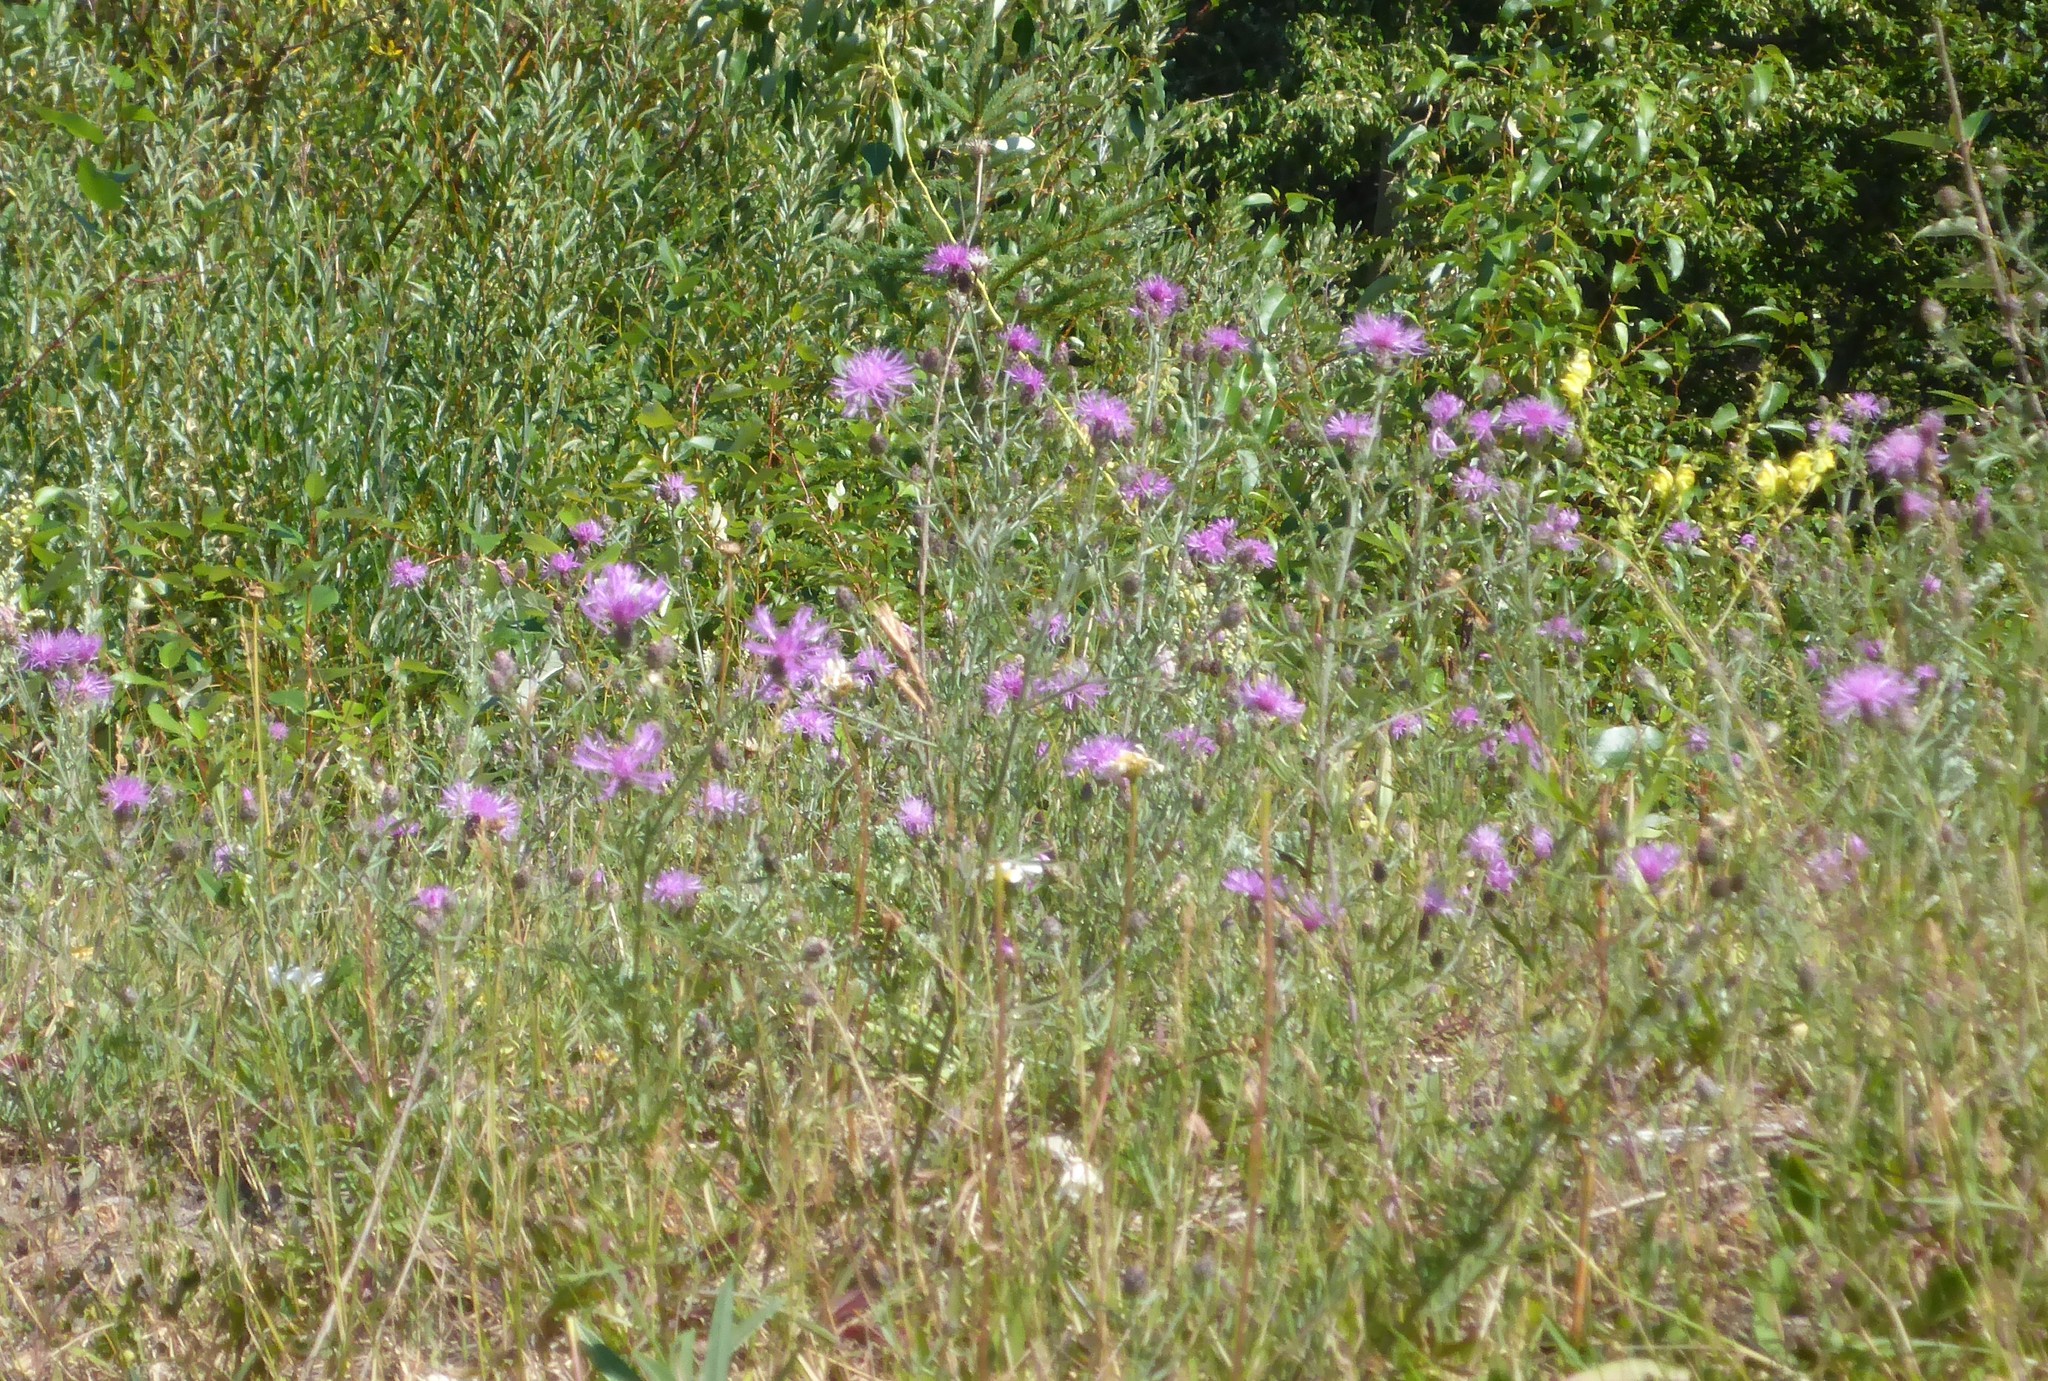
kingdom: Plantae
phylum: Tracheophyta
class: Magnoliopsida
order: Asterales
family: Asteraceae
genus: Centaurea
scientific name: Centaurea stoebe
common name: Spotted knapweed
